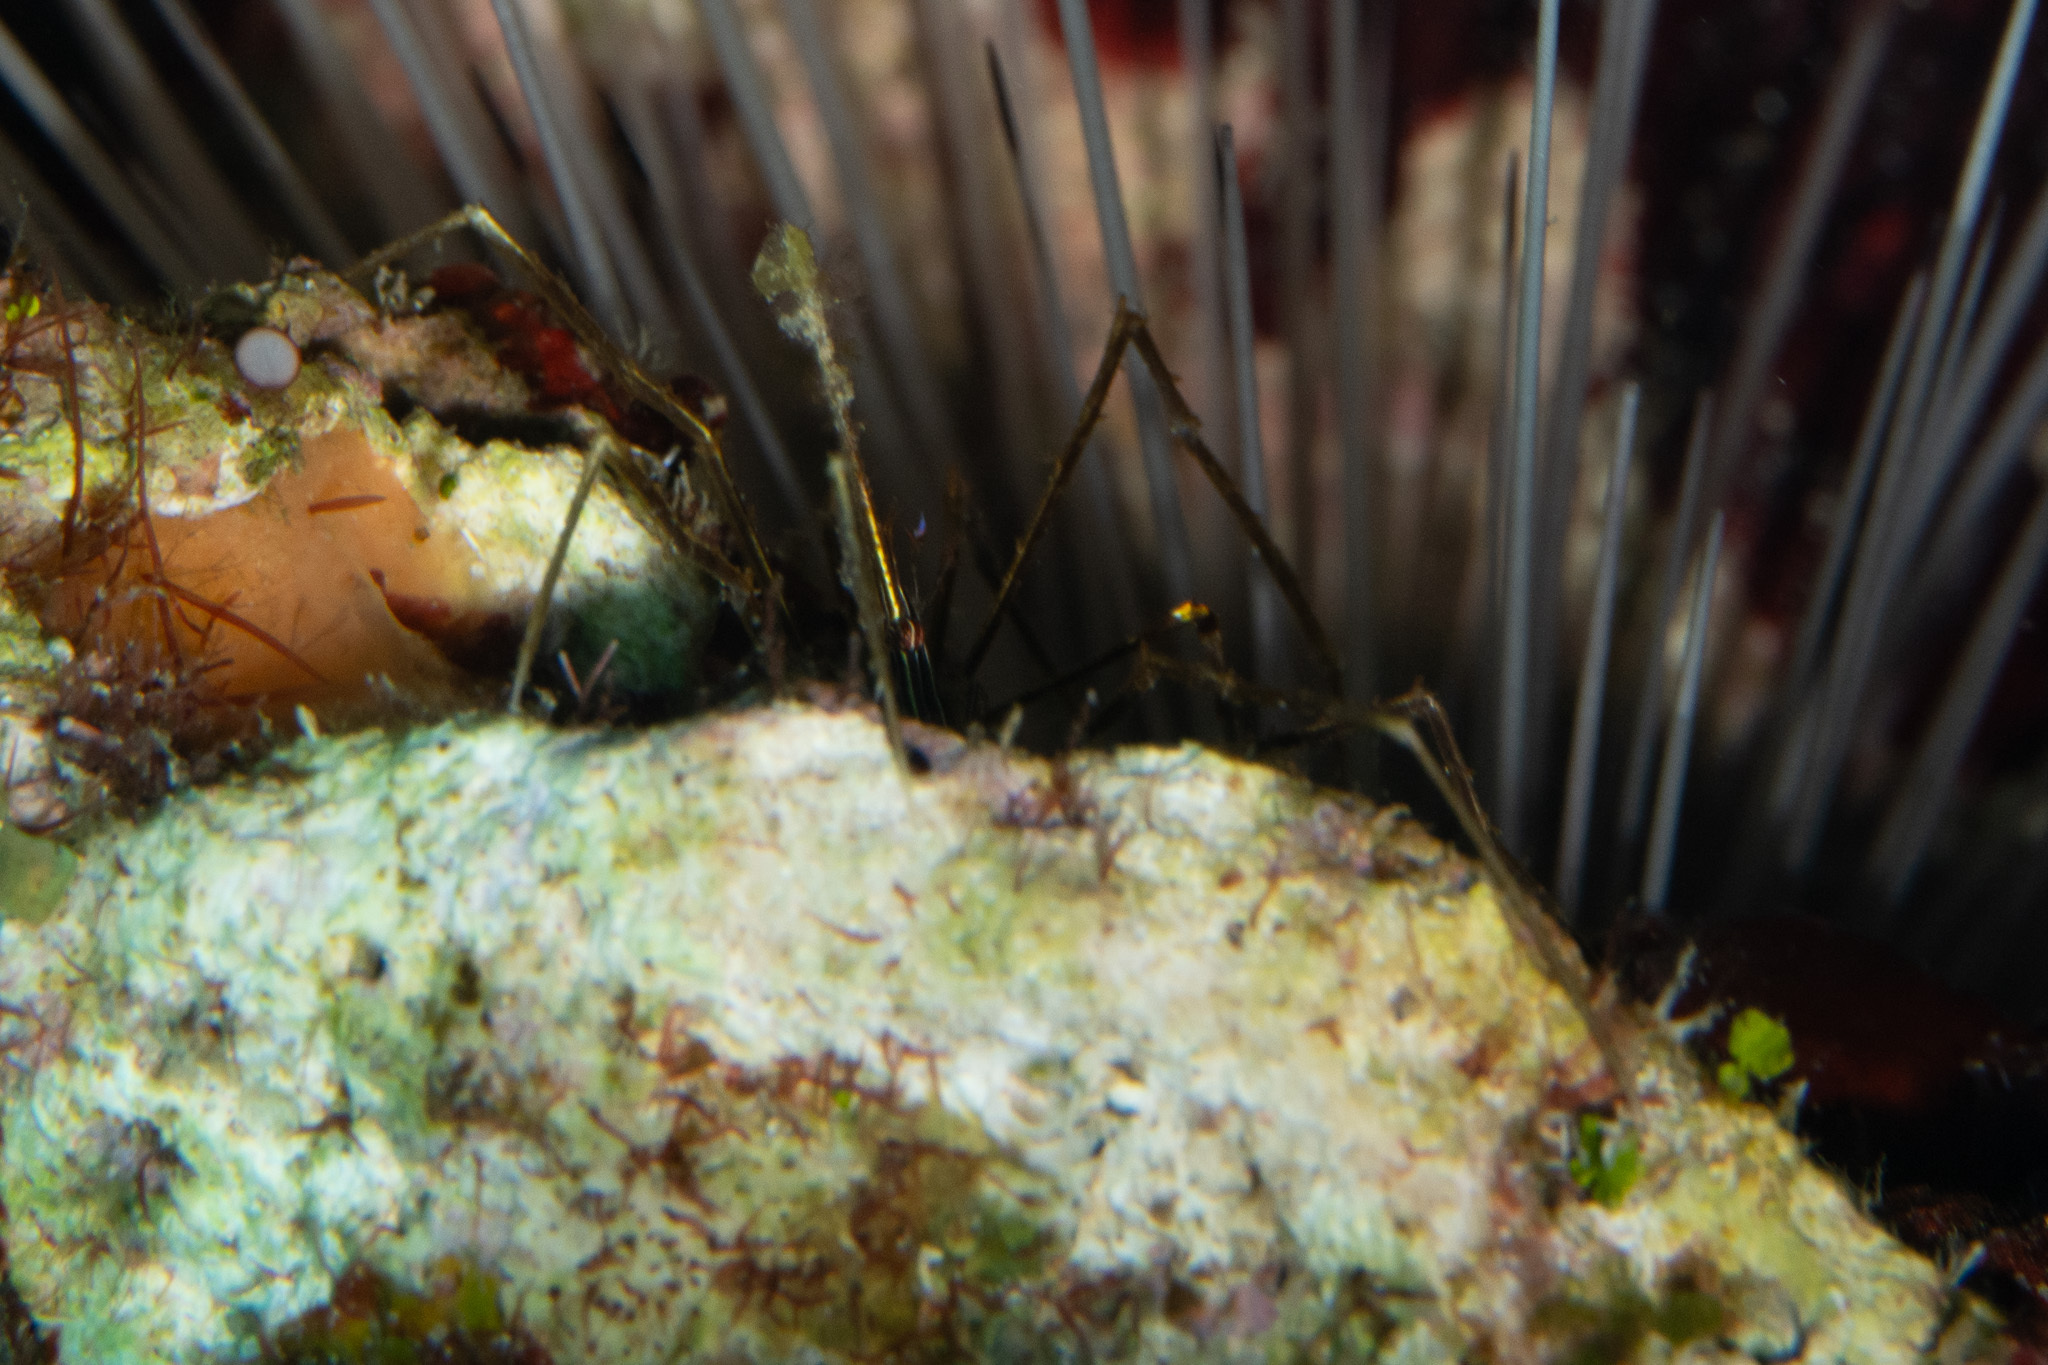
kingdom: Animalia
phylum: Arthropoda
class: Malacostraca
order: Decapoda
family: Inachoididae
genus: Stenorhynchus
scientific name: Stenorhynchus seticornis
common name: Arrow crab
